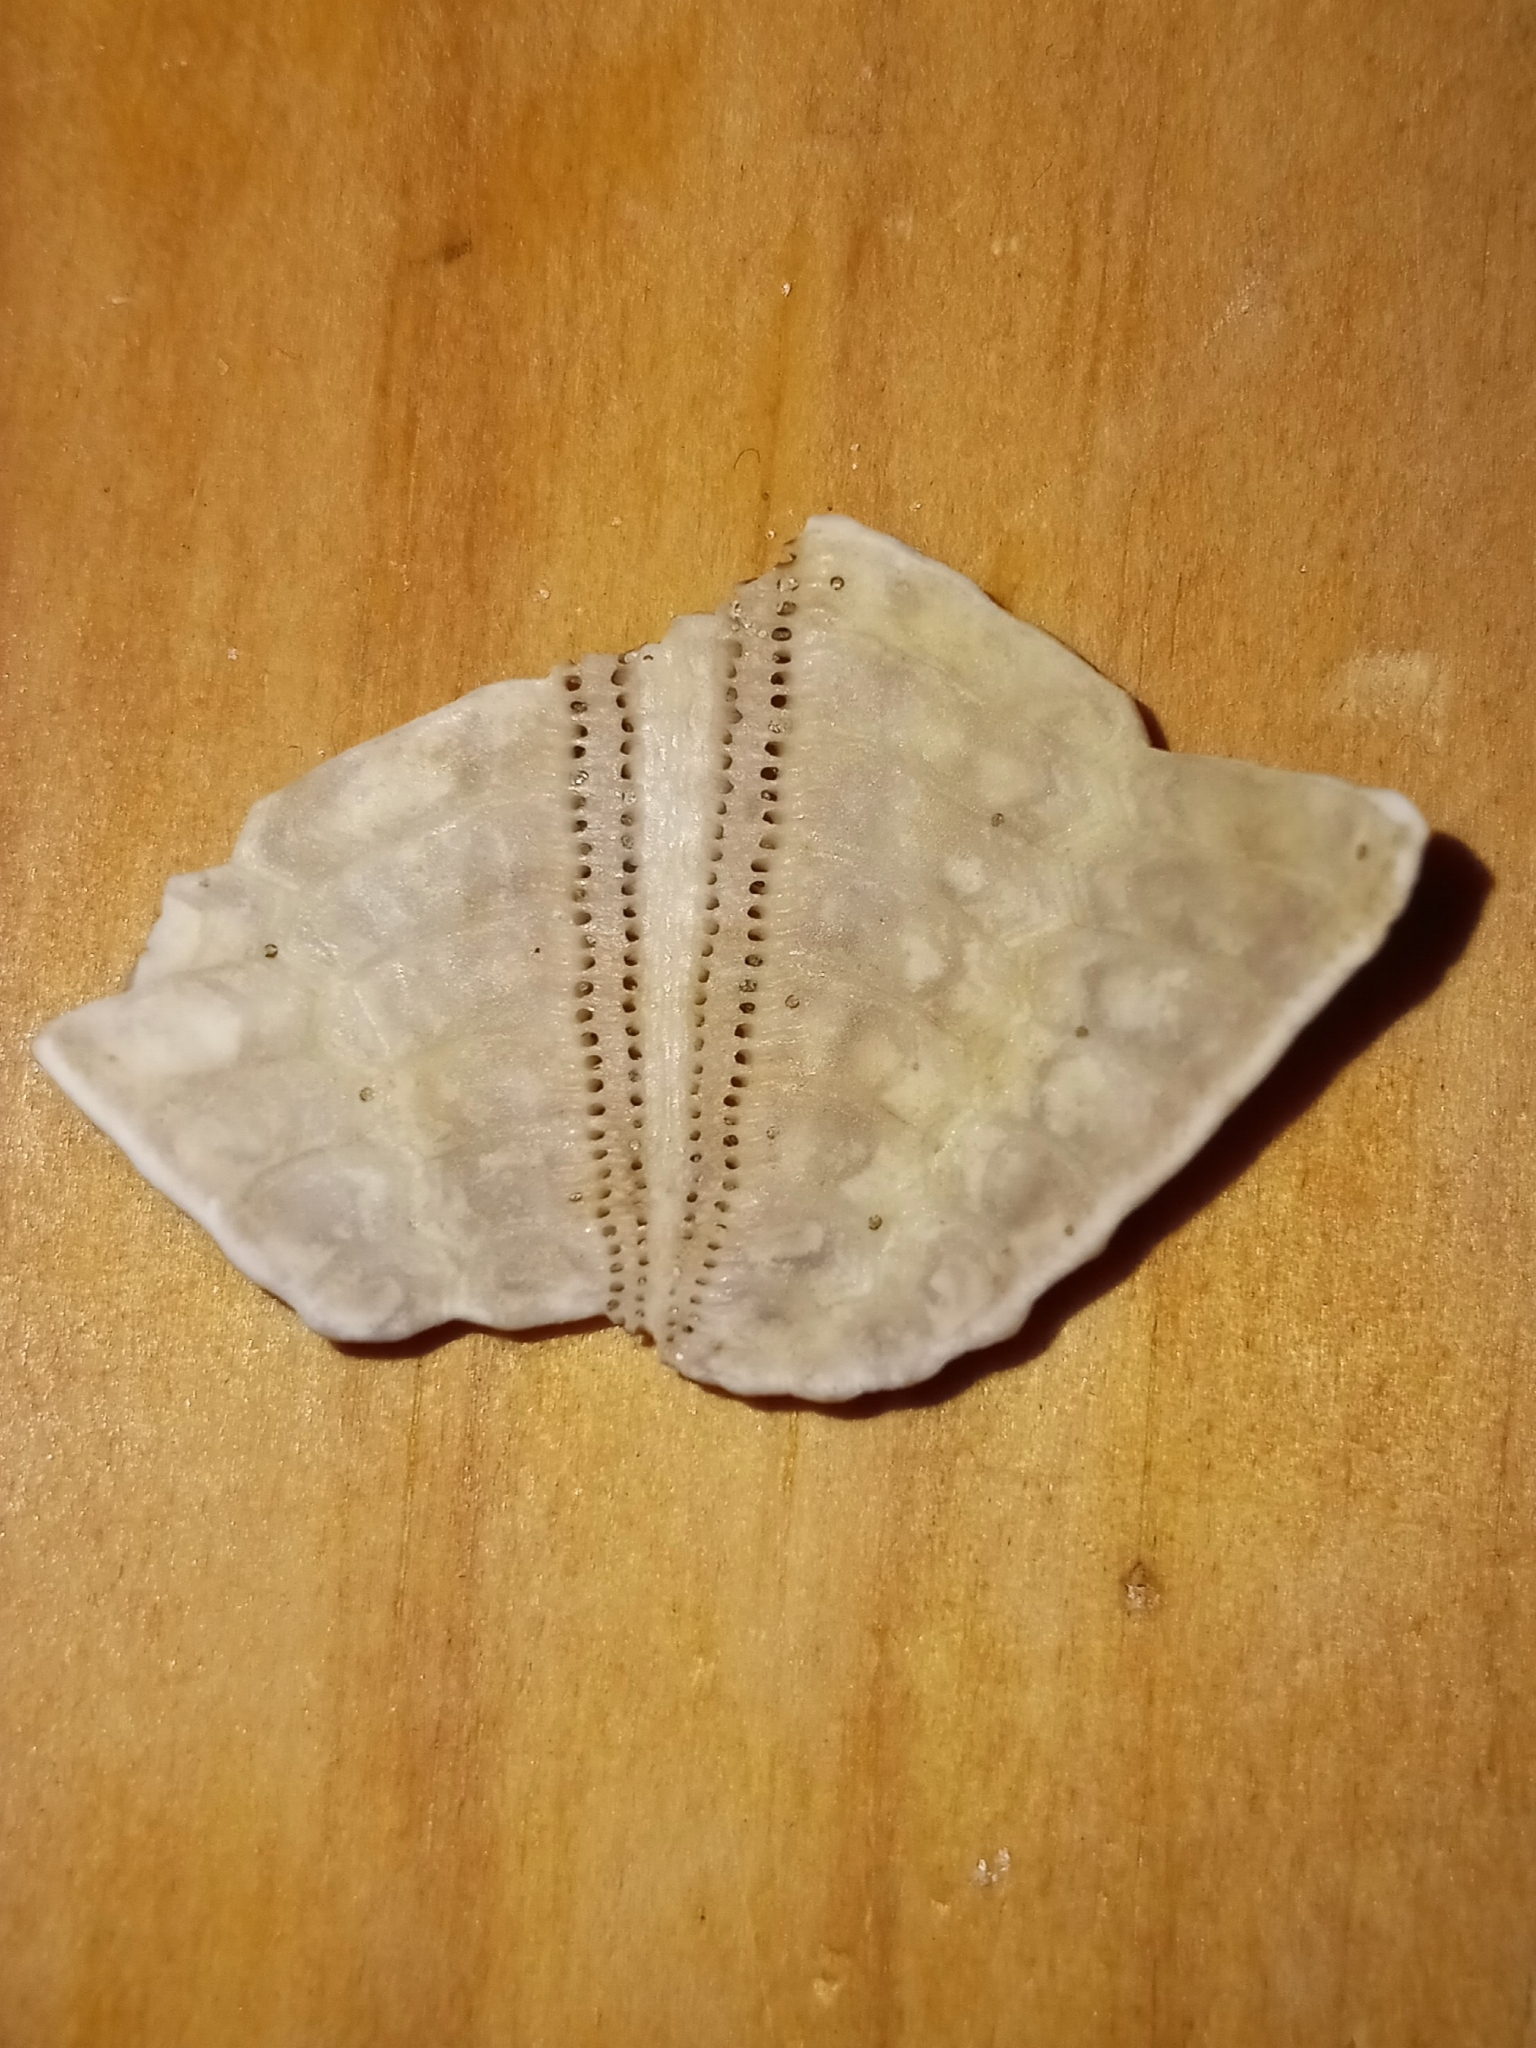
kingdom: Animalia
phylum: Echinodermata
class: Echinoidea
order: Arbacioida
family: Arbaciidae
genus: Arbacia
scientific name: Arbacia punctulata
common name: Purple-spined sea urchin
